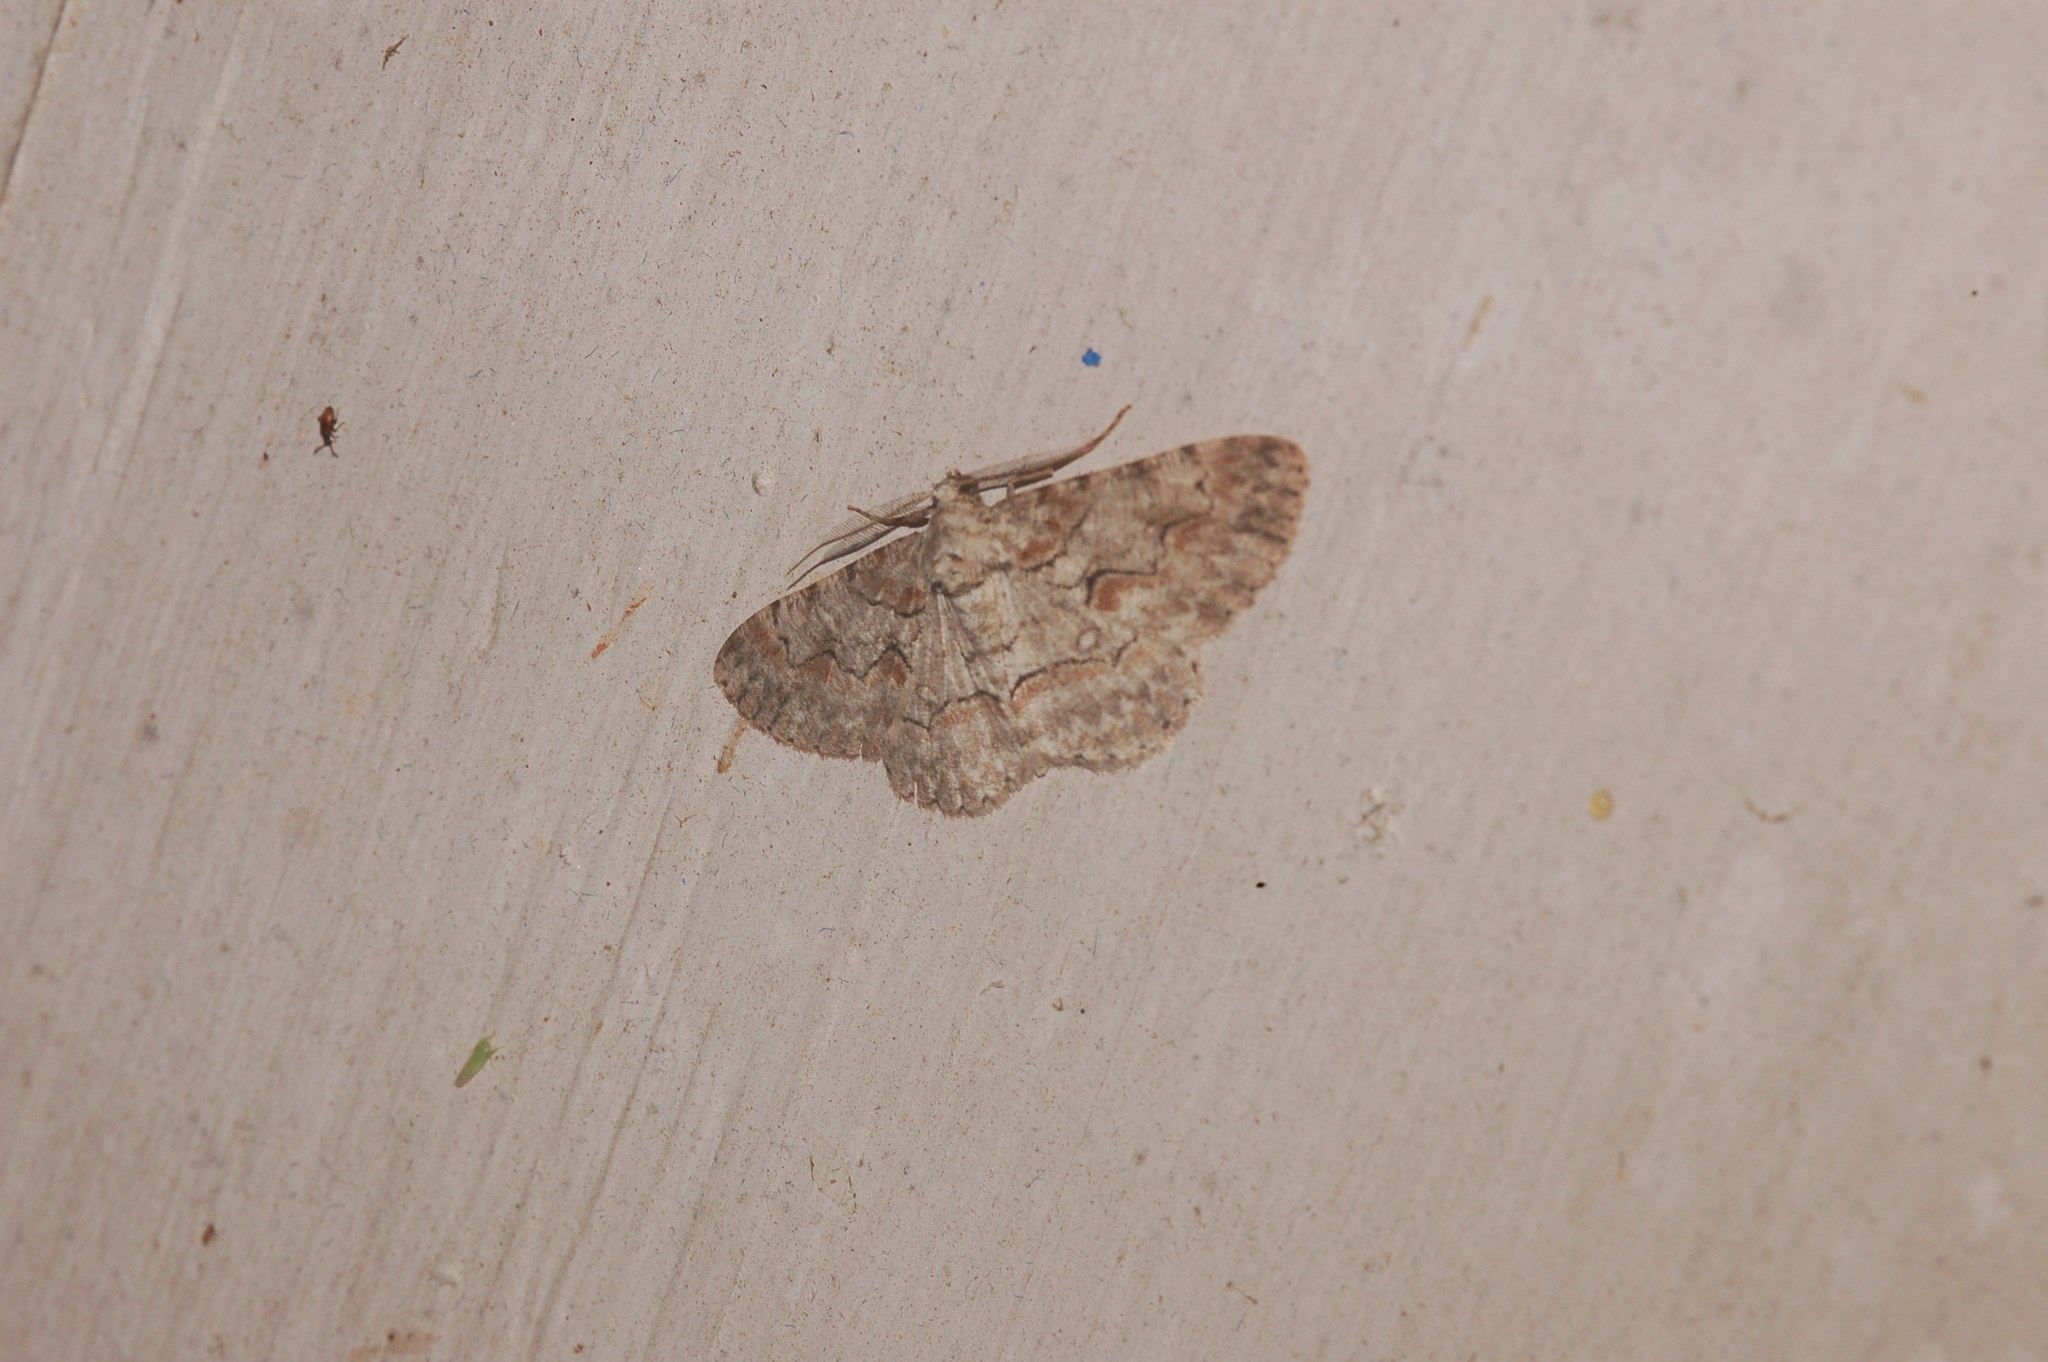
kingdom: Animalia
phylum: Arthropoda
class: Insecta
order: Lepidoptera
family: Geometridae
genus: Iridopsis
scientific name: Iridopsis defectaria
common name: Brown-shaded gray
